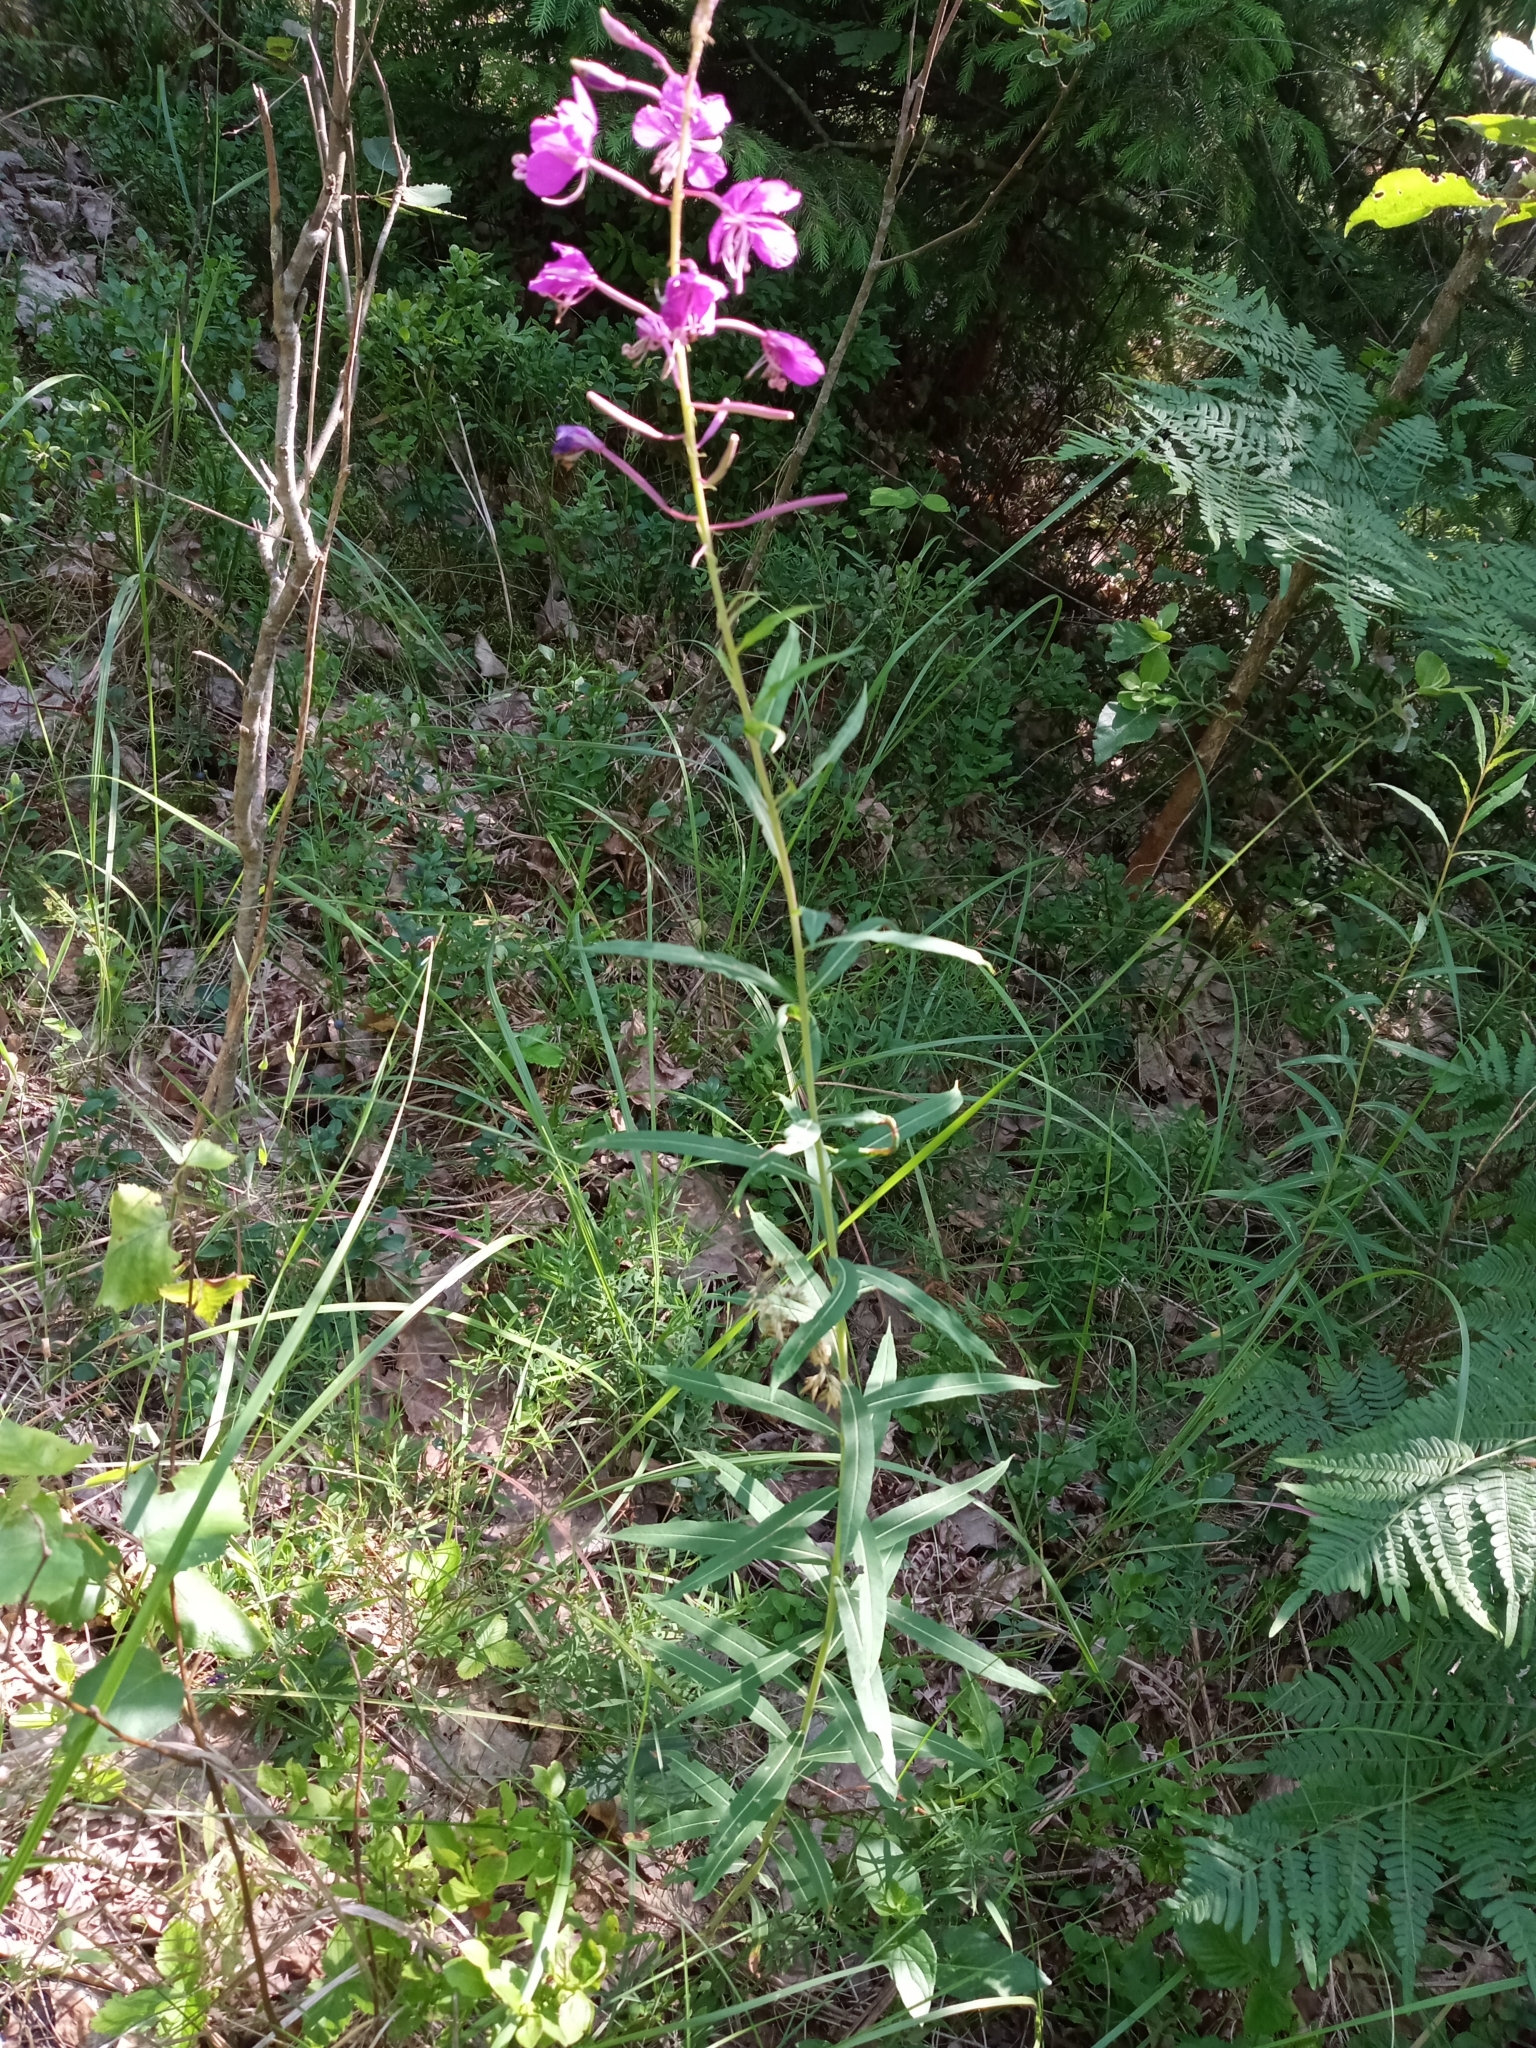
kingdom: Plantae
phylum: Tracheophyta
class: Magnoliopsida
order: Myrtales
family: Onagraceae
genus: Chamaenerion
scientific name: Chamaenerion angustifolium
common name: Fireweed
